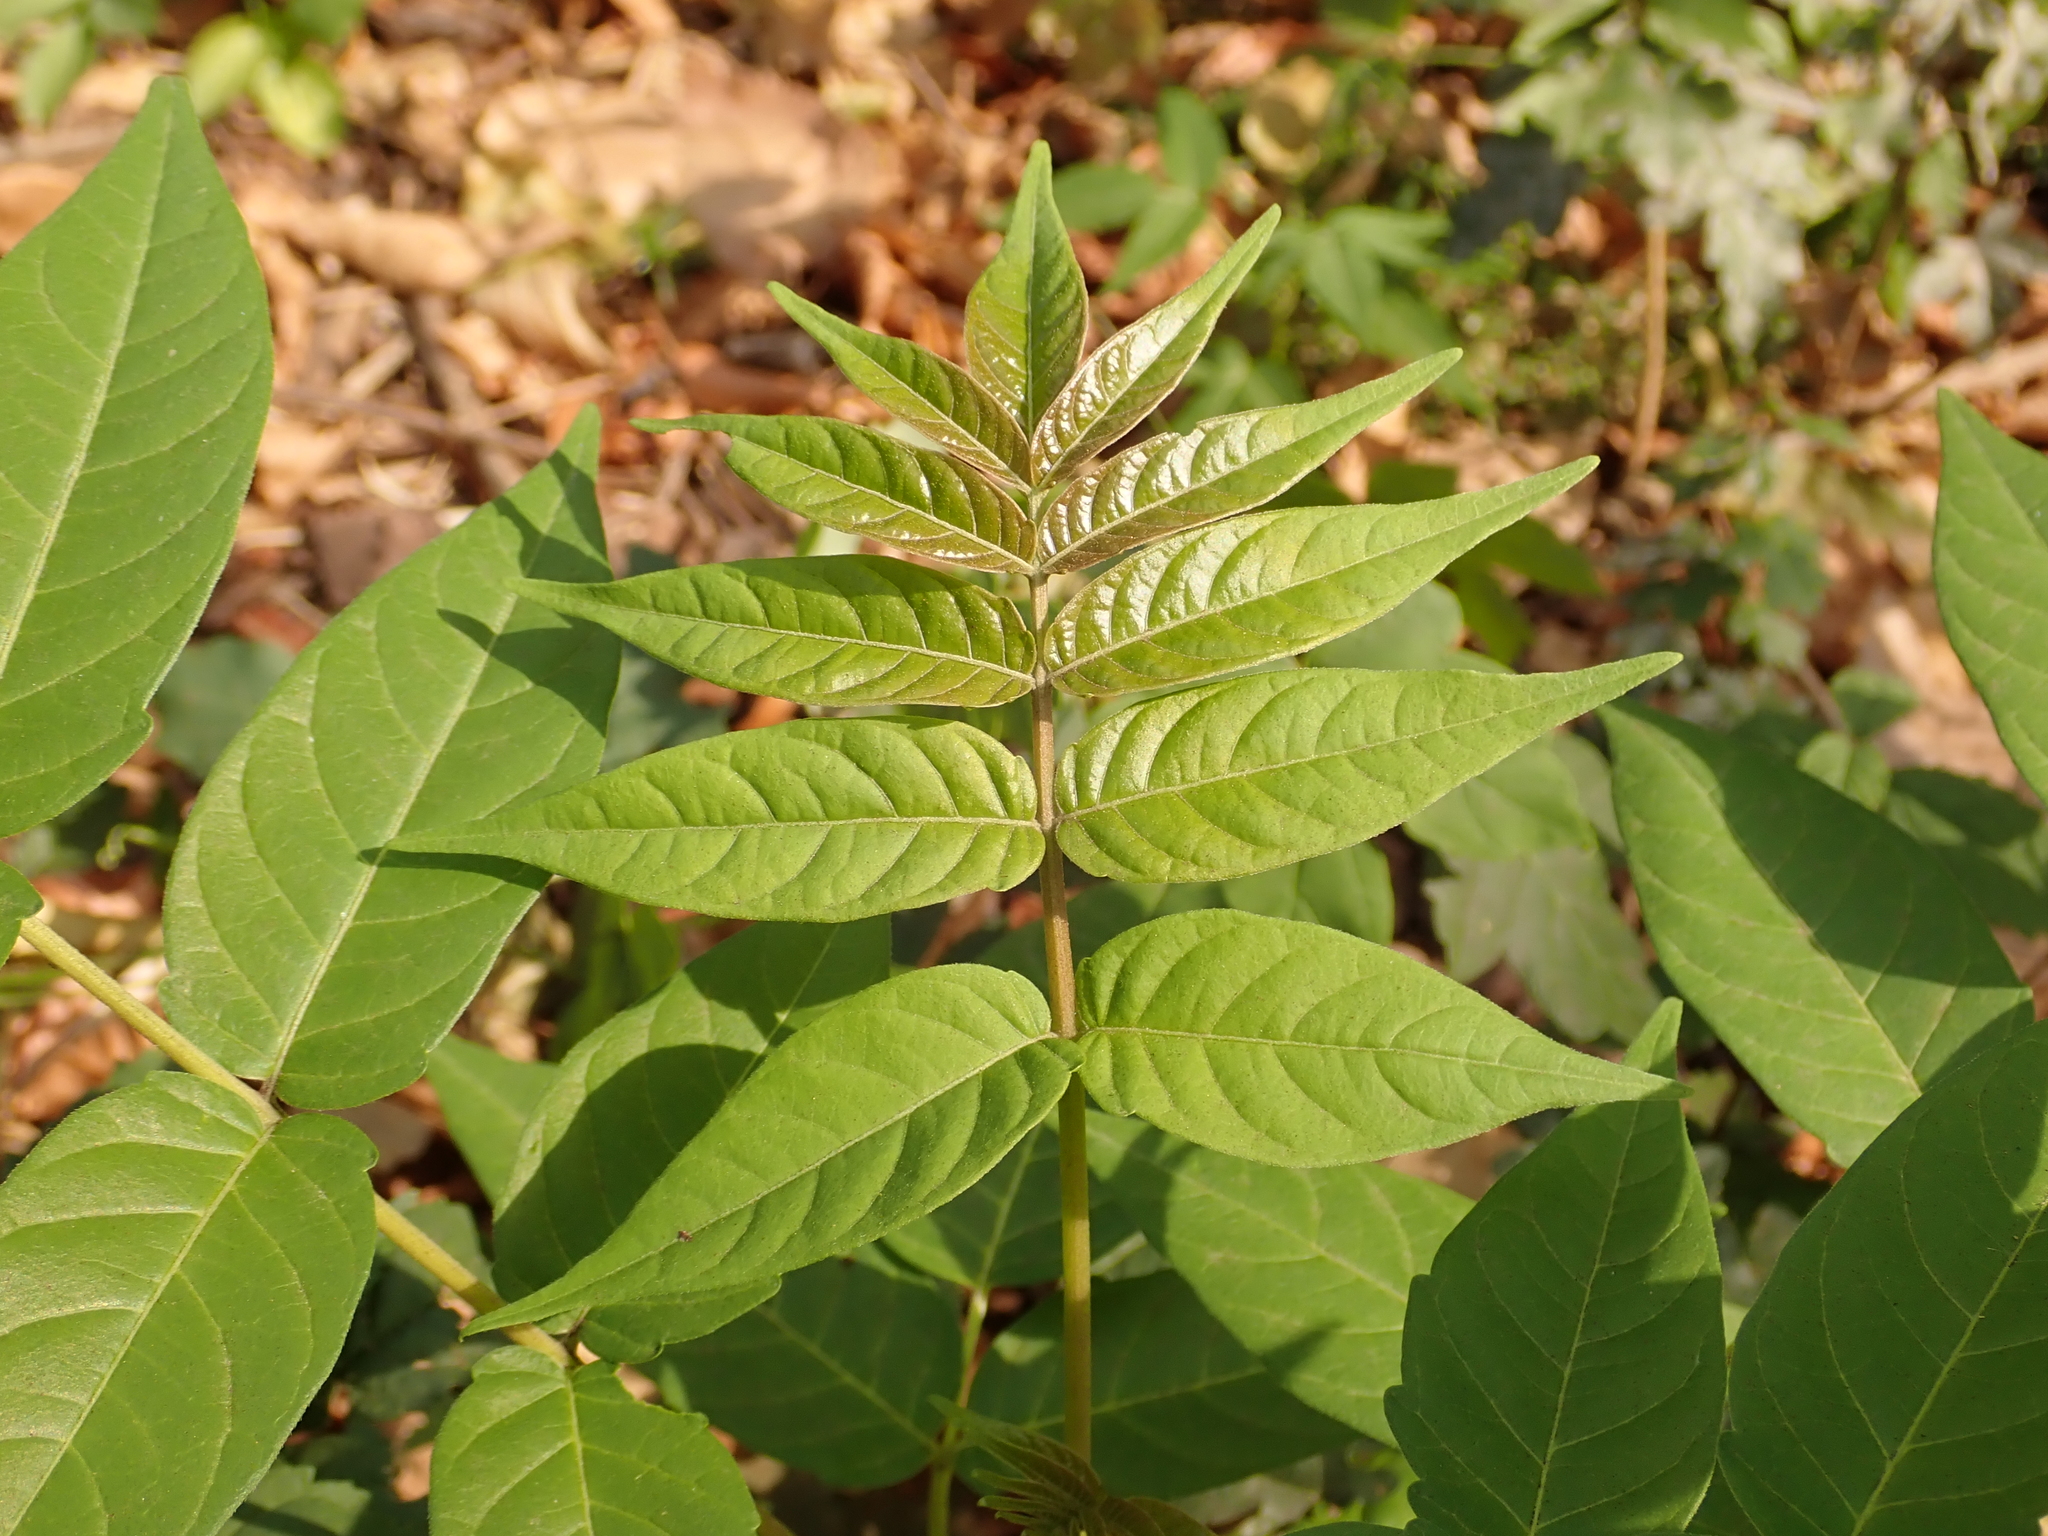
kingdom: Plantae
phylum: Tracheophyta
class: Magnoliopsida
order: Sapindales
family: Simaroubaceae
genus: Ailanthus
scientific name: Ailanthus altissima
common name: Tree-of-heaven
